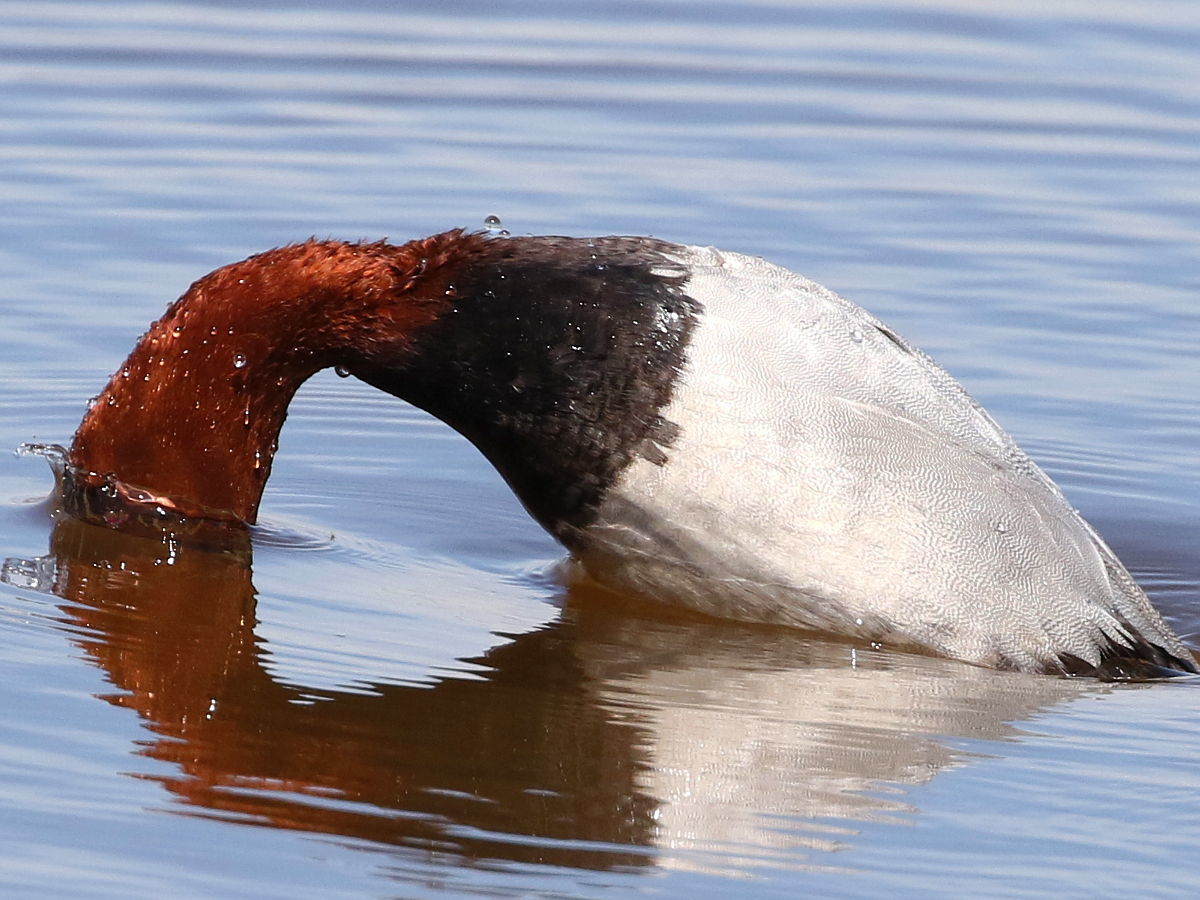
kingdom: Animalia
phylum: Chordata
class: Aves
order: Anseriformes
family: Anatidae
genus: Aythya
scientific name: Aythya ferina
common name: Common pochard
